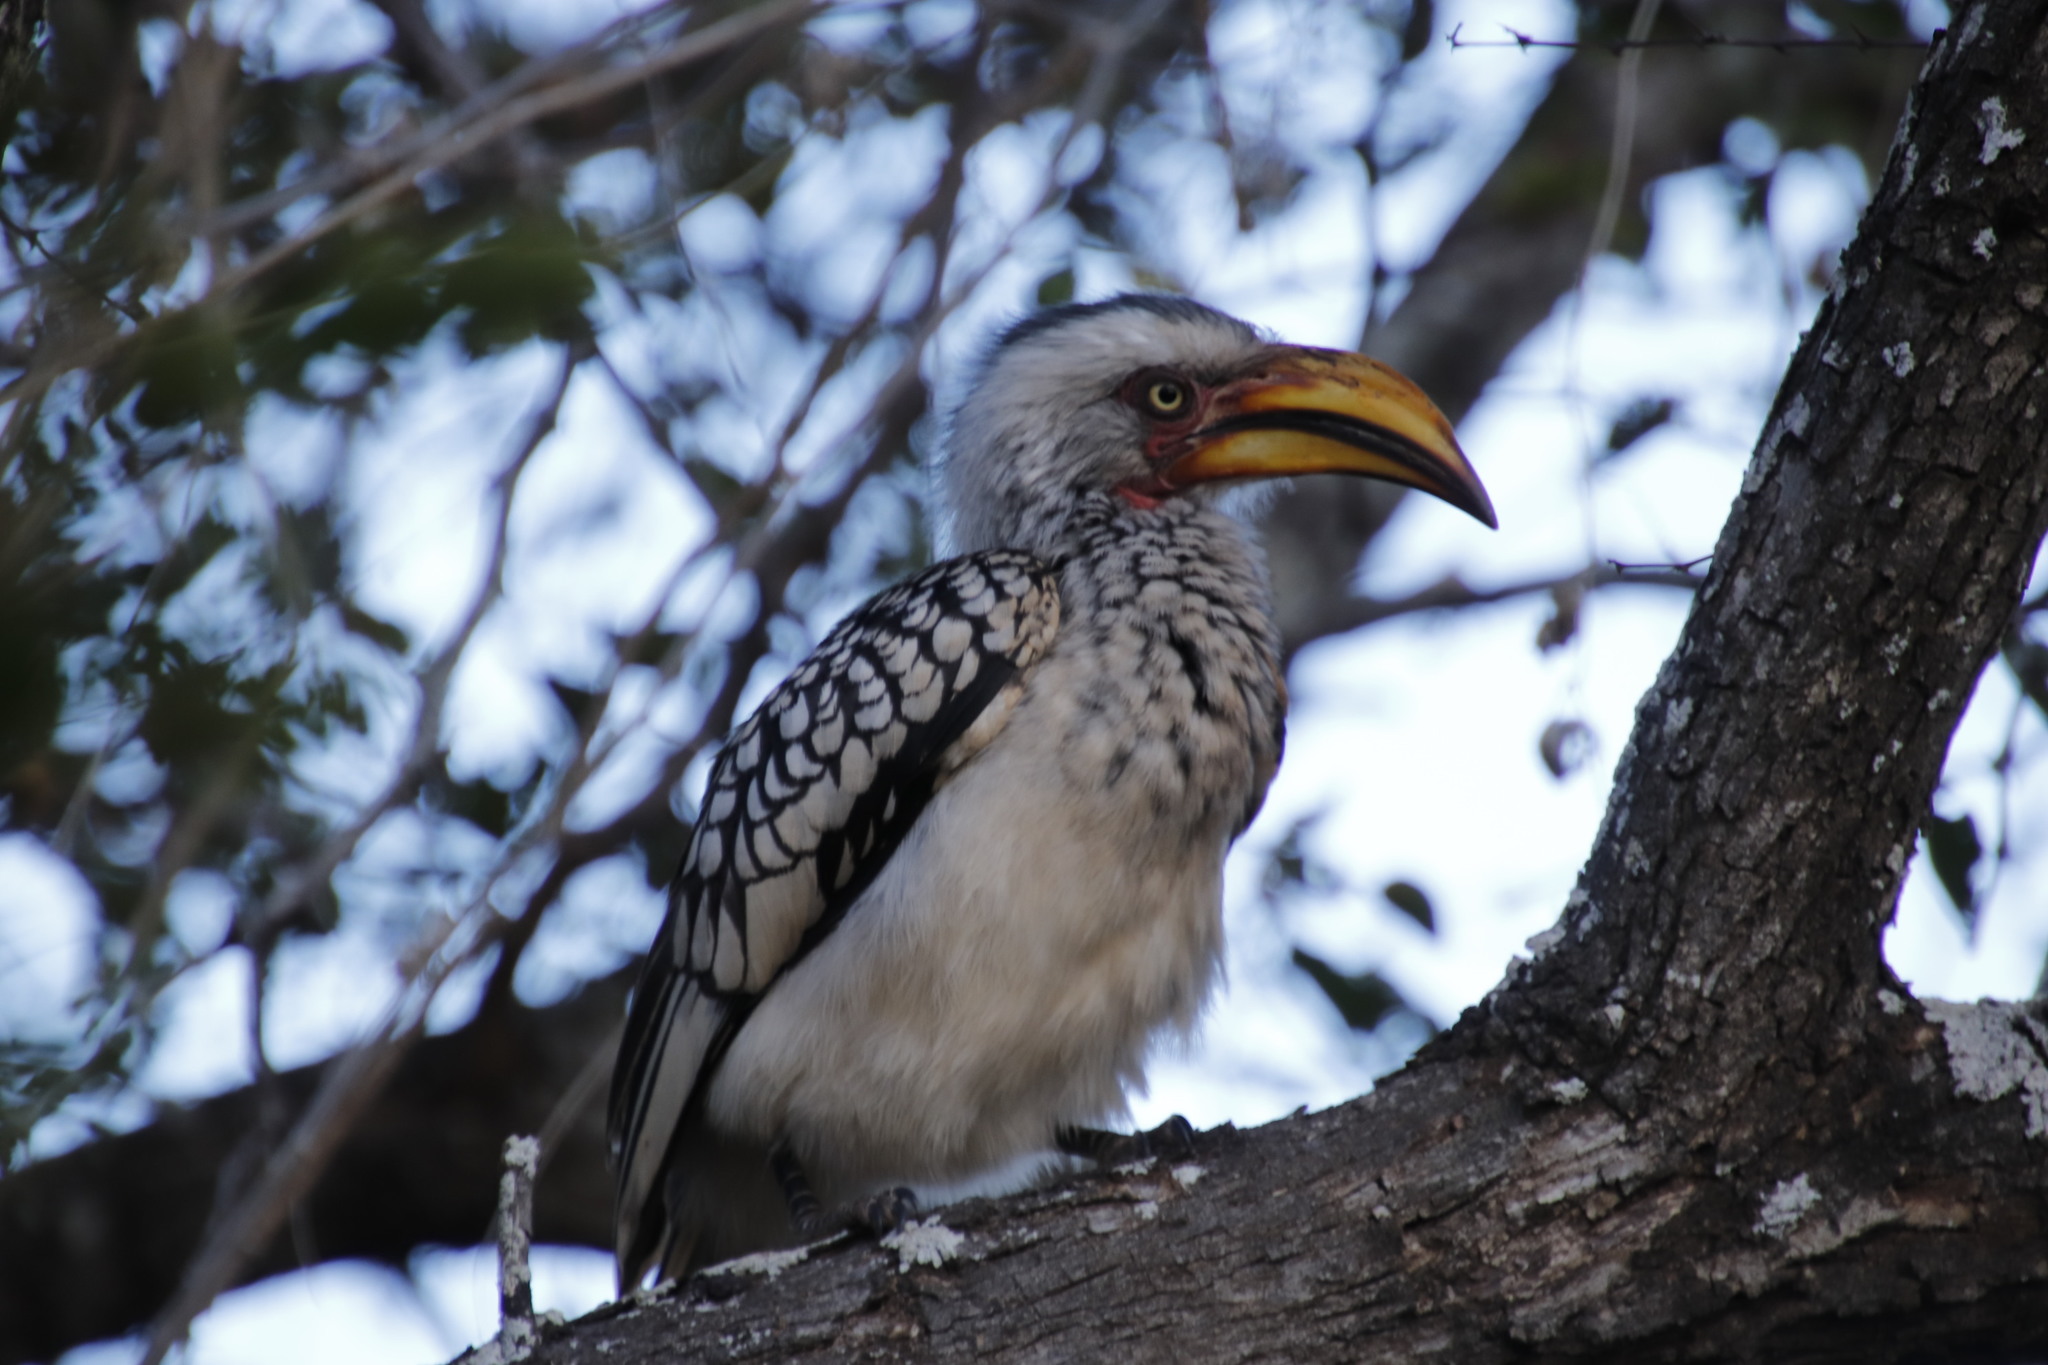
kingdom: Animalia
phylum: Chordata
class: Aves
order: Bucerotiformes
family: Bucerotidae
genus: Tockus
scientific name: Tockus leucomelas
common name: Southern yellow-billed hornbill
